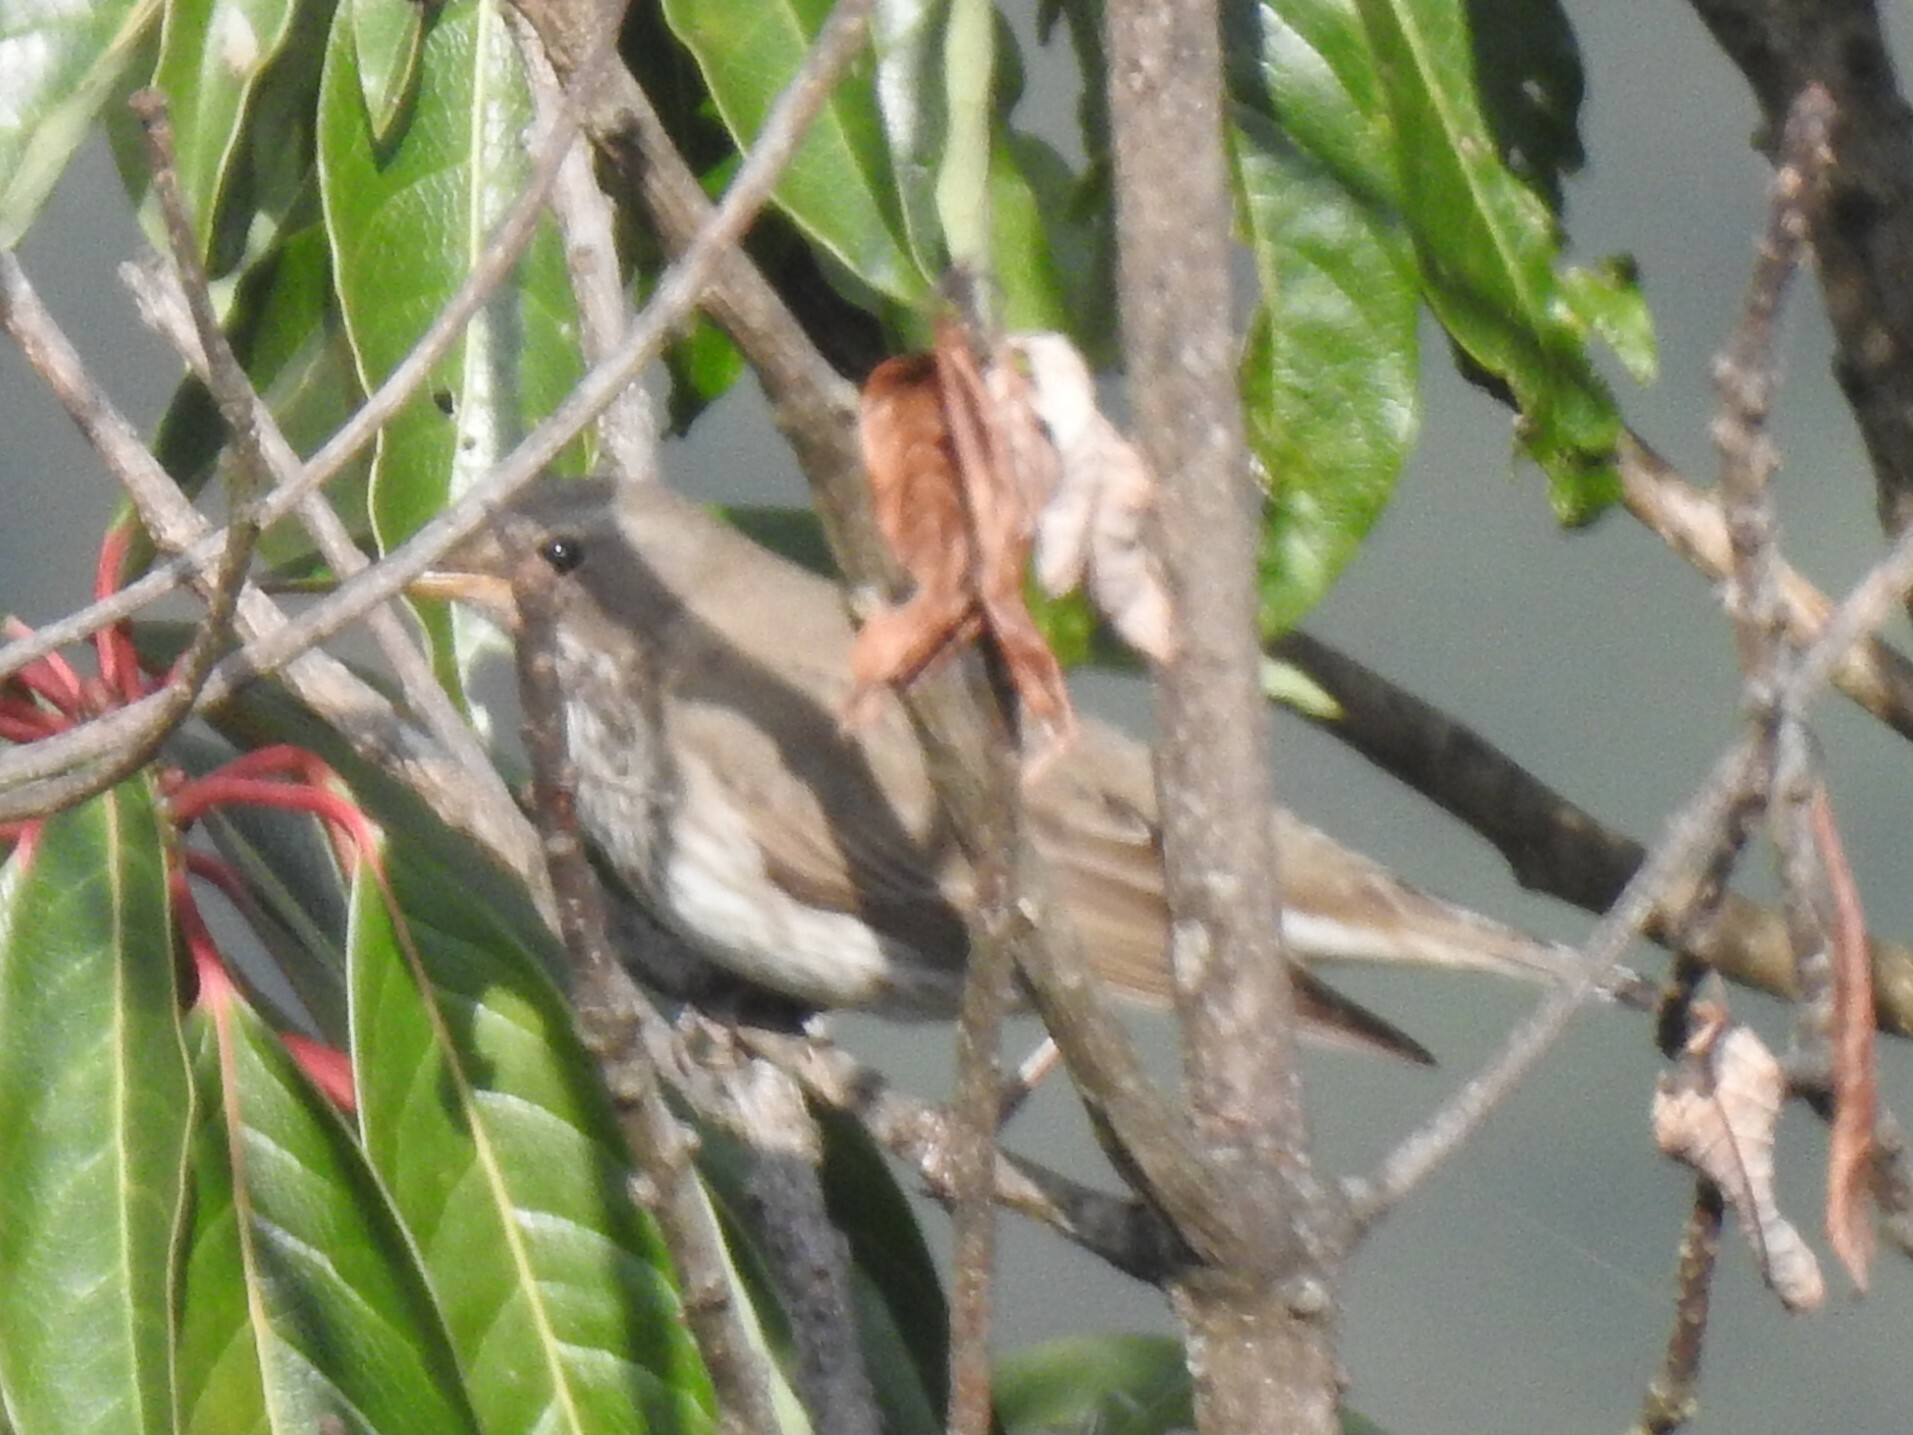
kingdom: Animalia
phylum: Chordata
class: Aves
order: Passeriformes
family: Turdidae
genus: Turdus
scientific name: Turdus atrogularis
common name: Black-throated thrush
